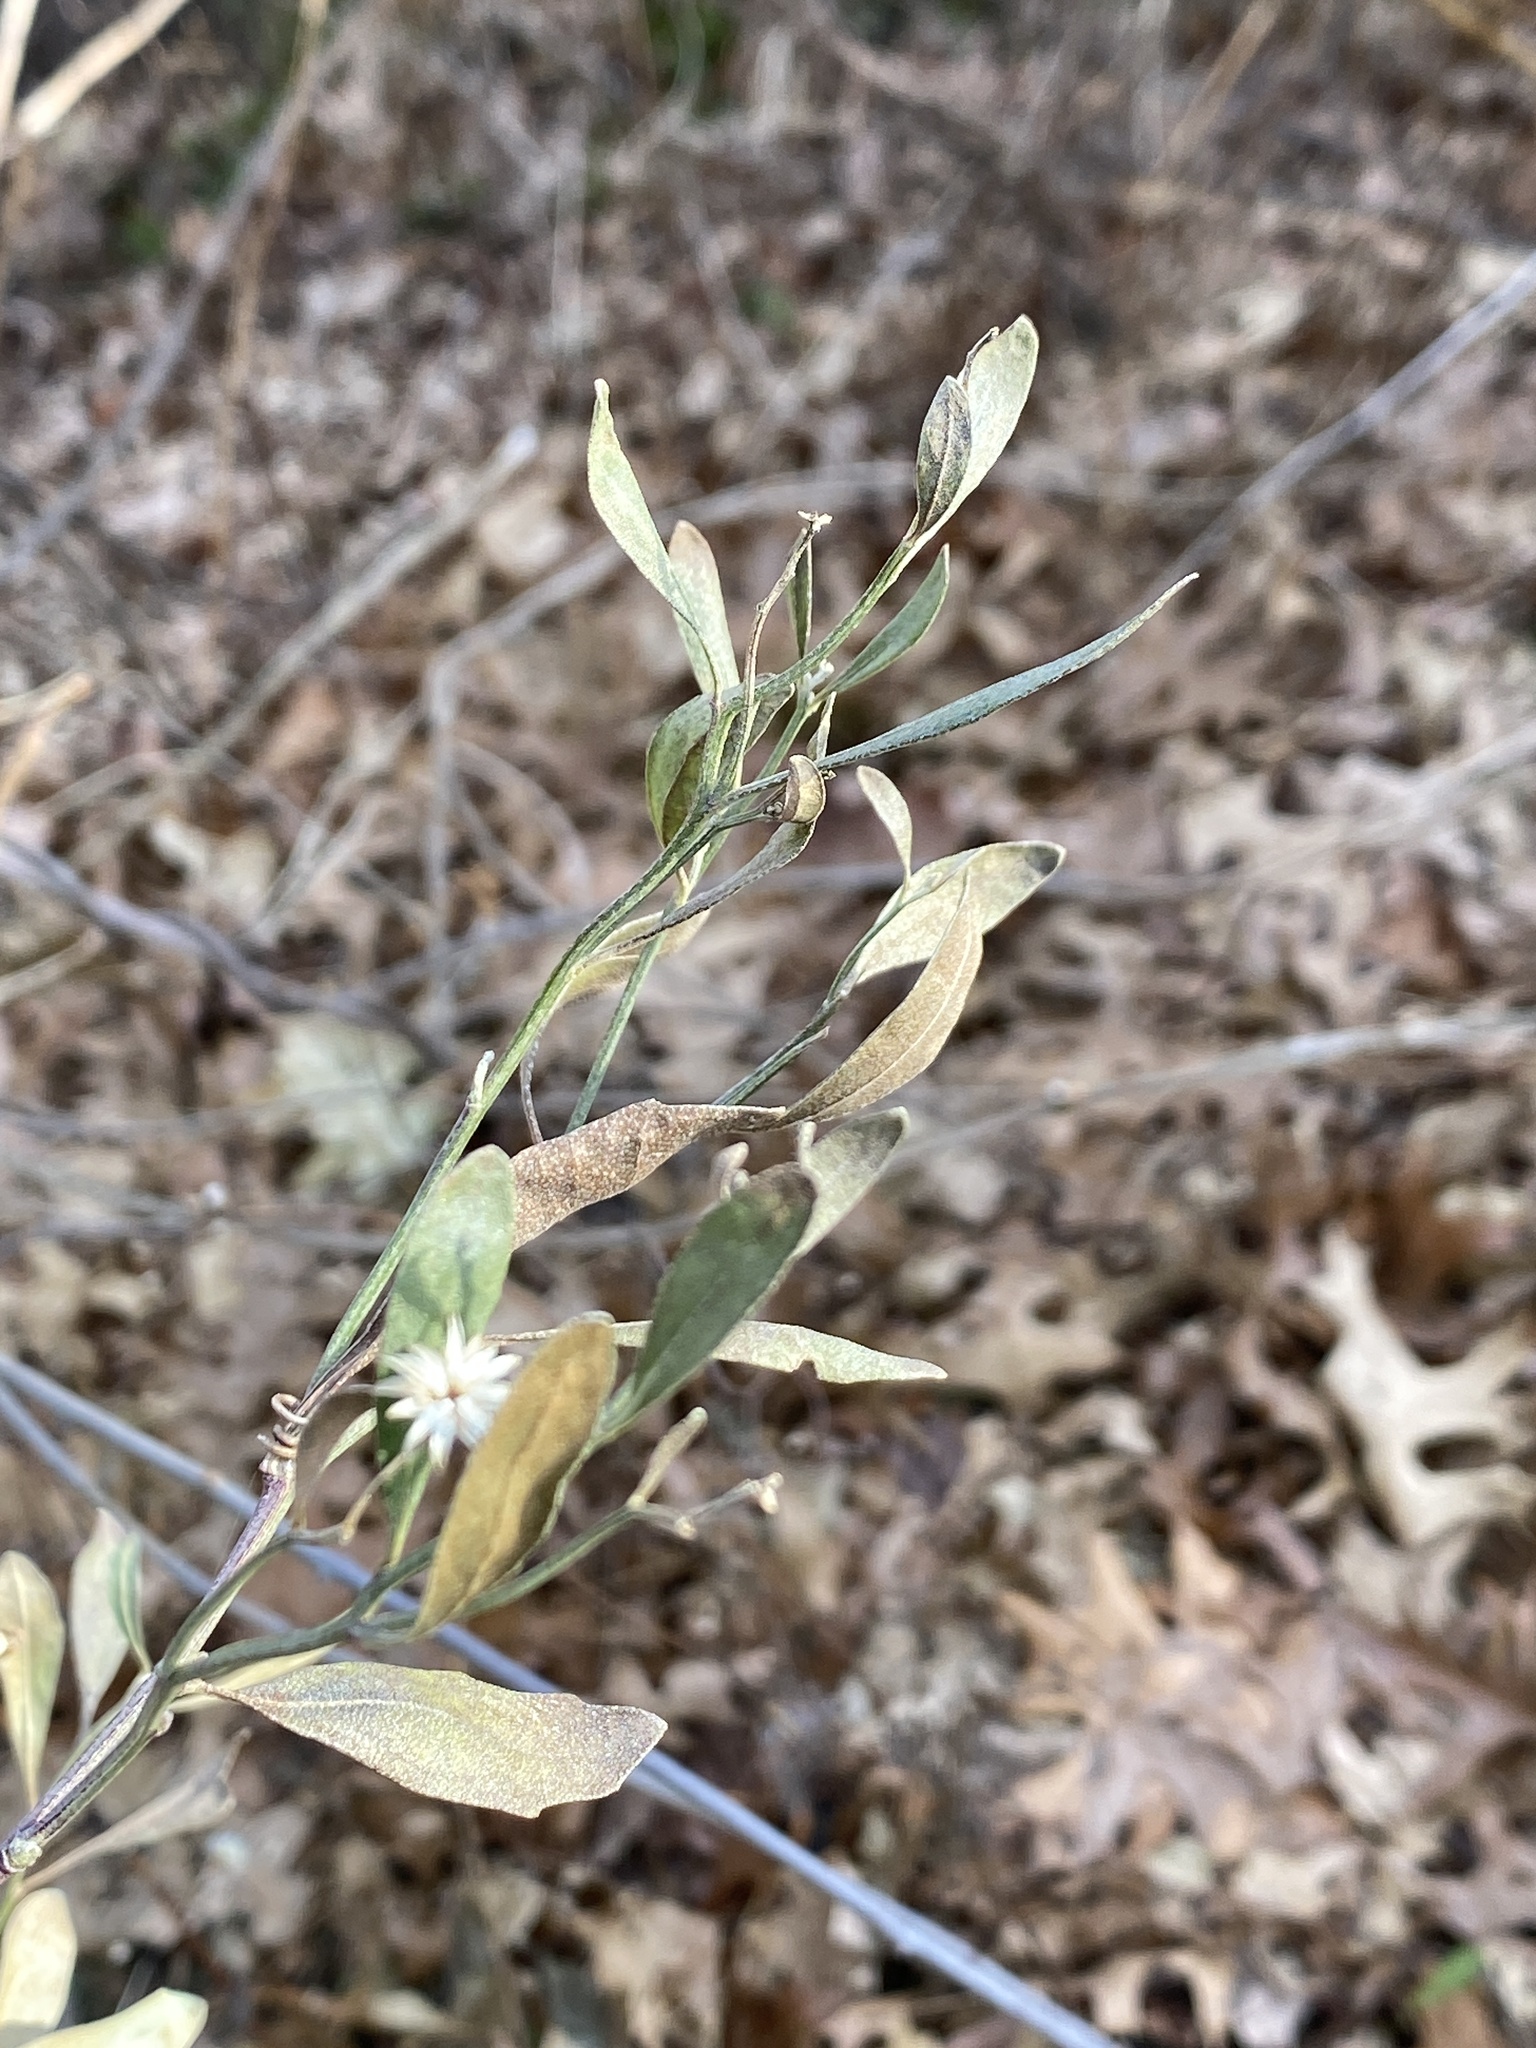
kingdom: Plantae
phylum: Tracheophyta
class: Magnoliopsida
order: Asterales
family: Asteraceae
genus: Baccharis
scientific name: Baccharis halimifolia
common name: Eastern baccharis
